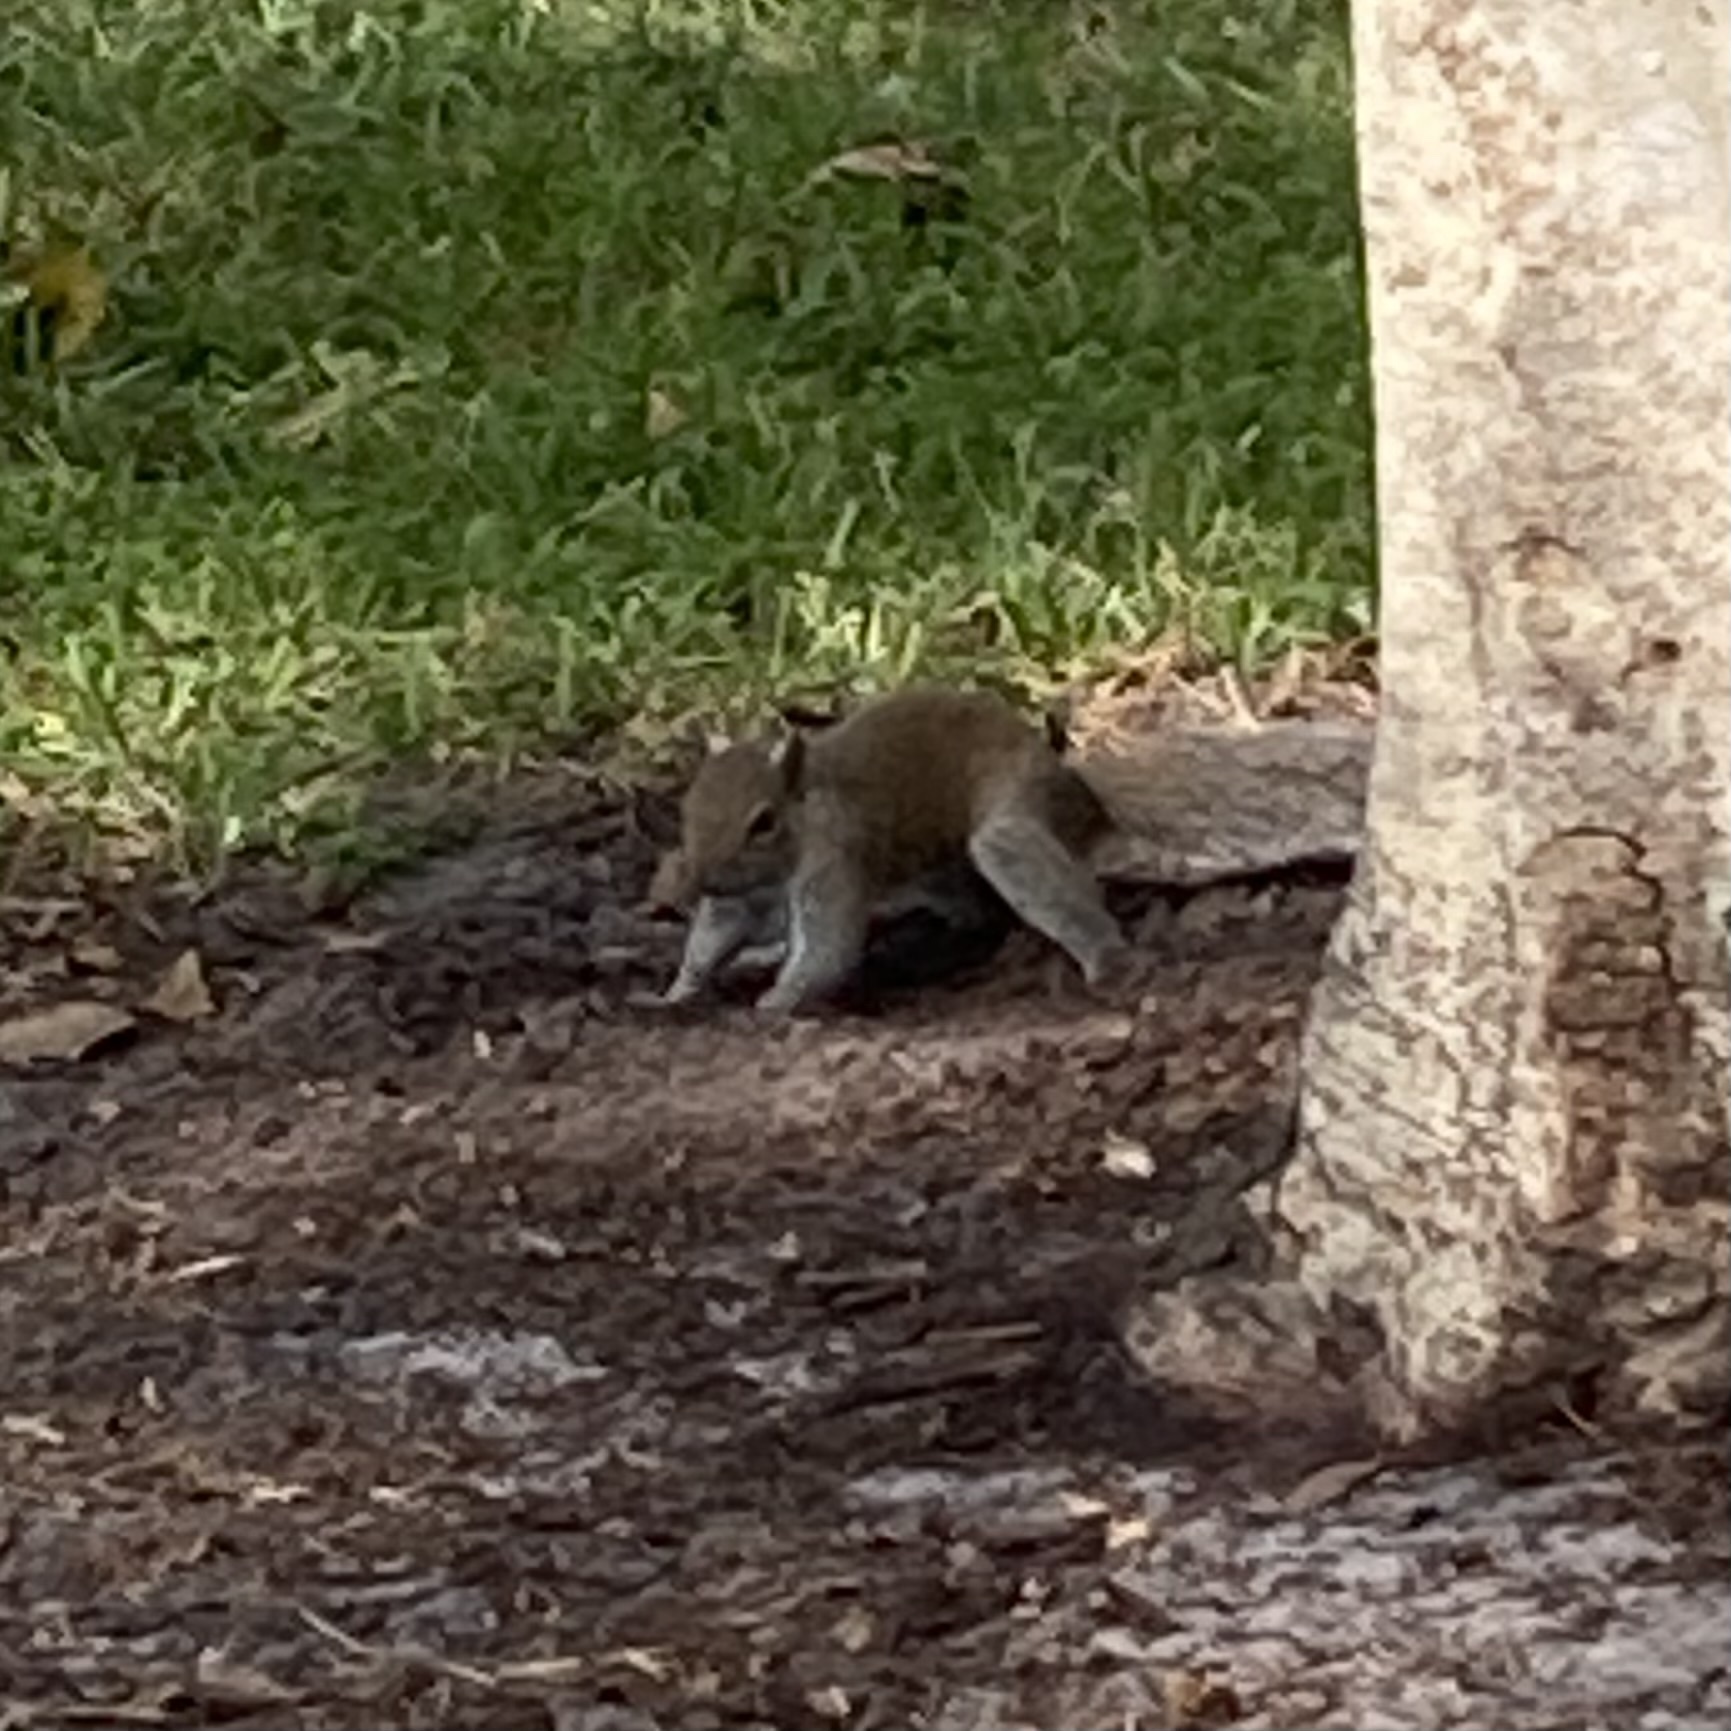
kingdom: Animalia
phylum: Chordata
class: Mammalia
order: Rodentia
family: Sciuridae
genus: Sciurus
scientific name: Sciurus carolinensis
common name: Eastern gray squirrel
